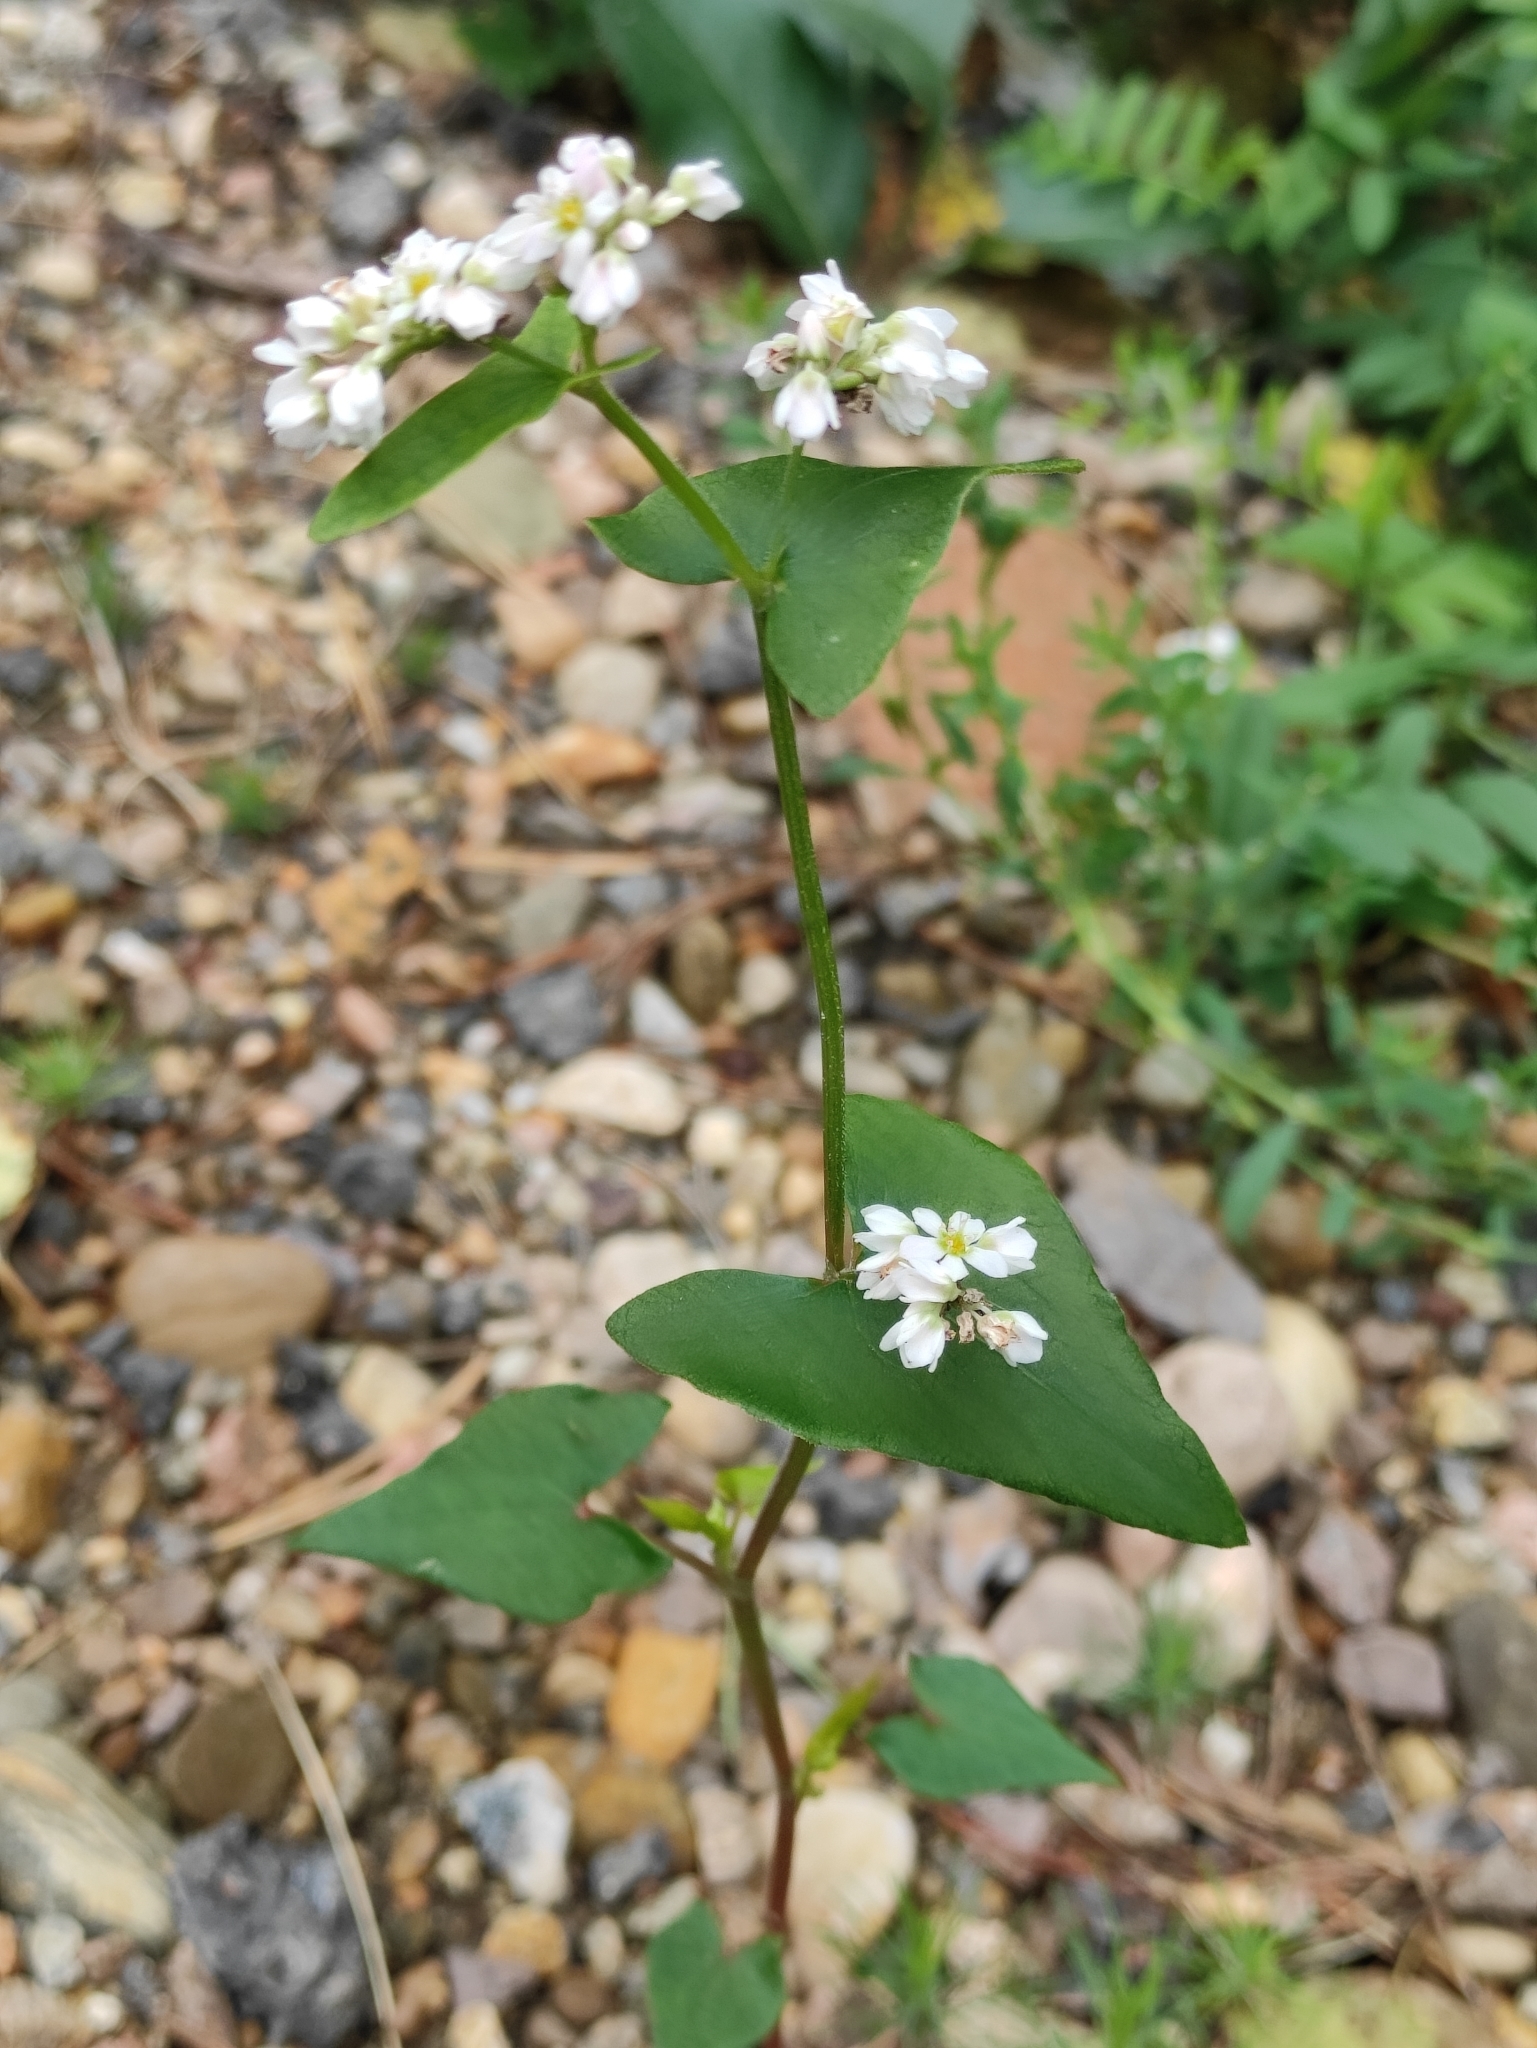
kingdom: Plantae
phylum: Tracheophyta
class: Magnoliopsida
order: Caryophyllales
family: Polygonaceae
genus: Fagopyrum
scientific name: Fagopyrum esculentum
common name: Buckwheat
